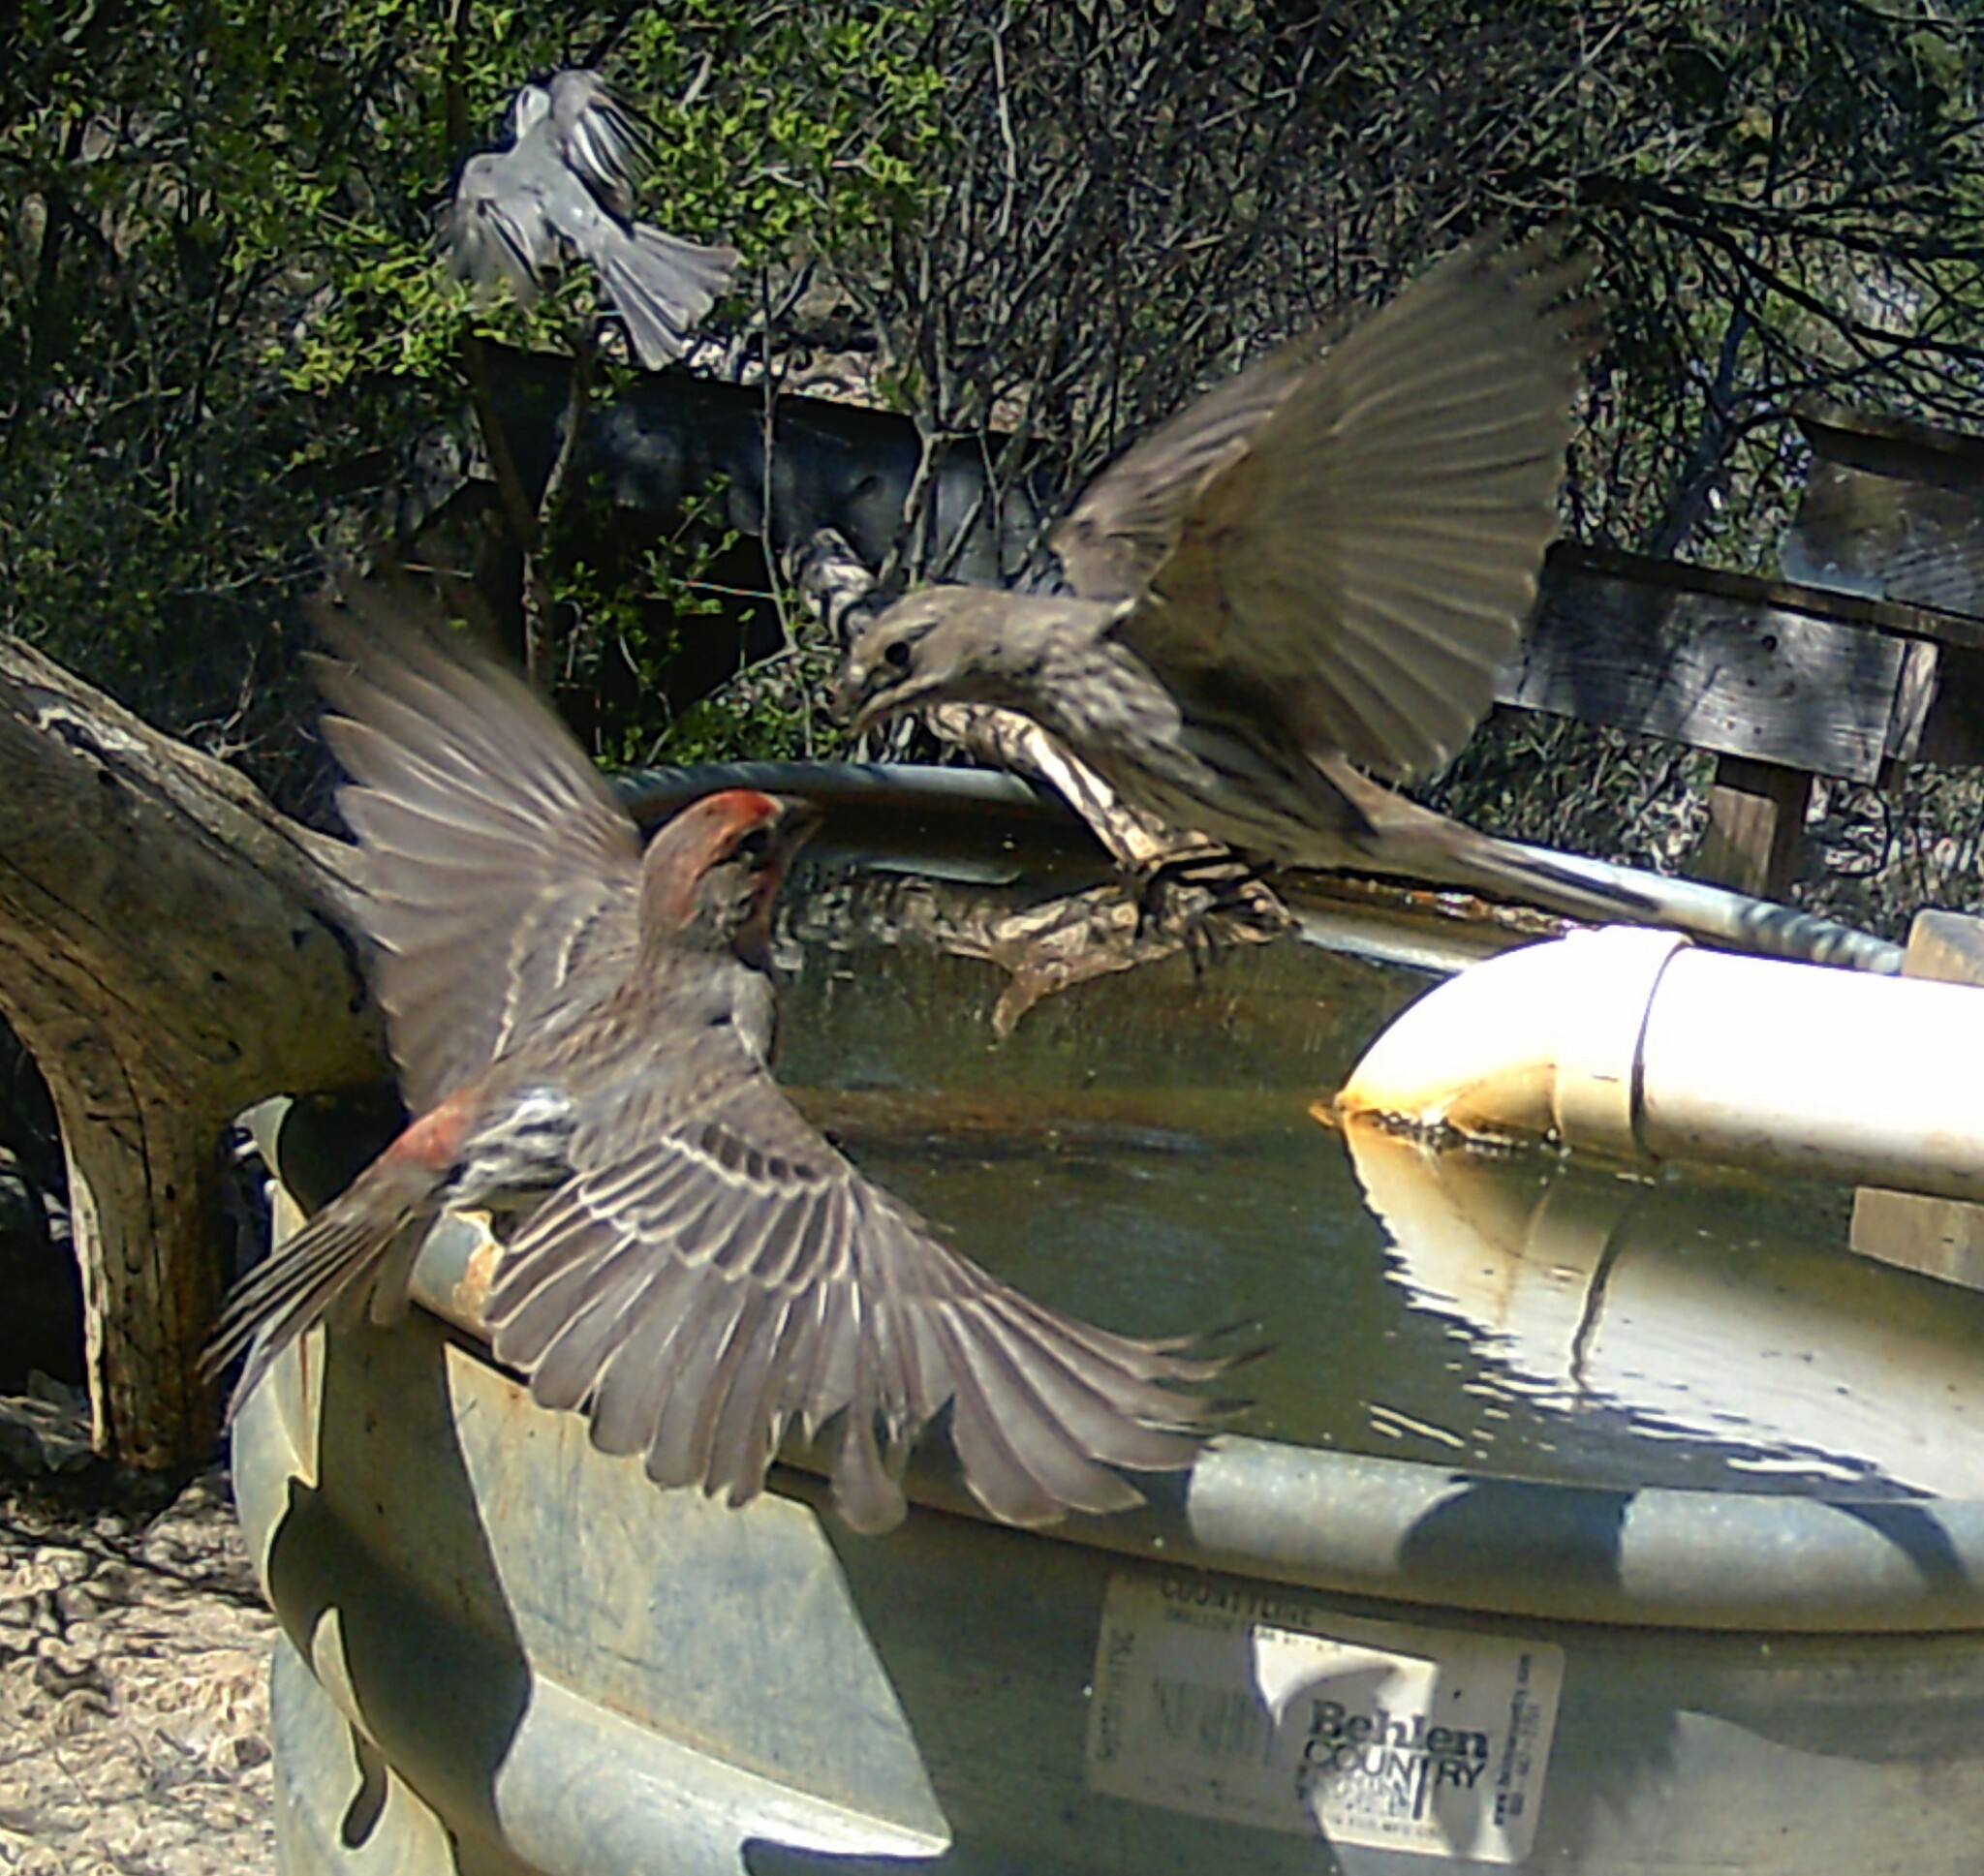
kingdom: Animalia
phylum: Chordata
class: Aves
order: Passeriformes
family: Fringillidae
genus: Haemorhous
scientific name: Haemorhous mexicanus
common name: House finch
